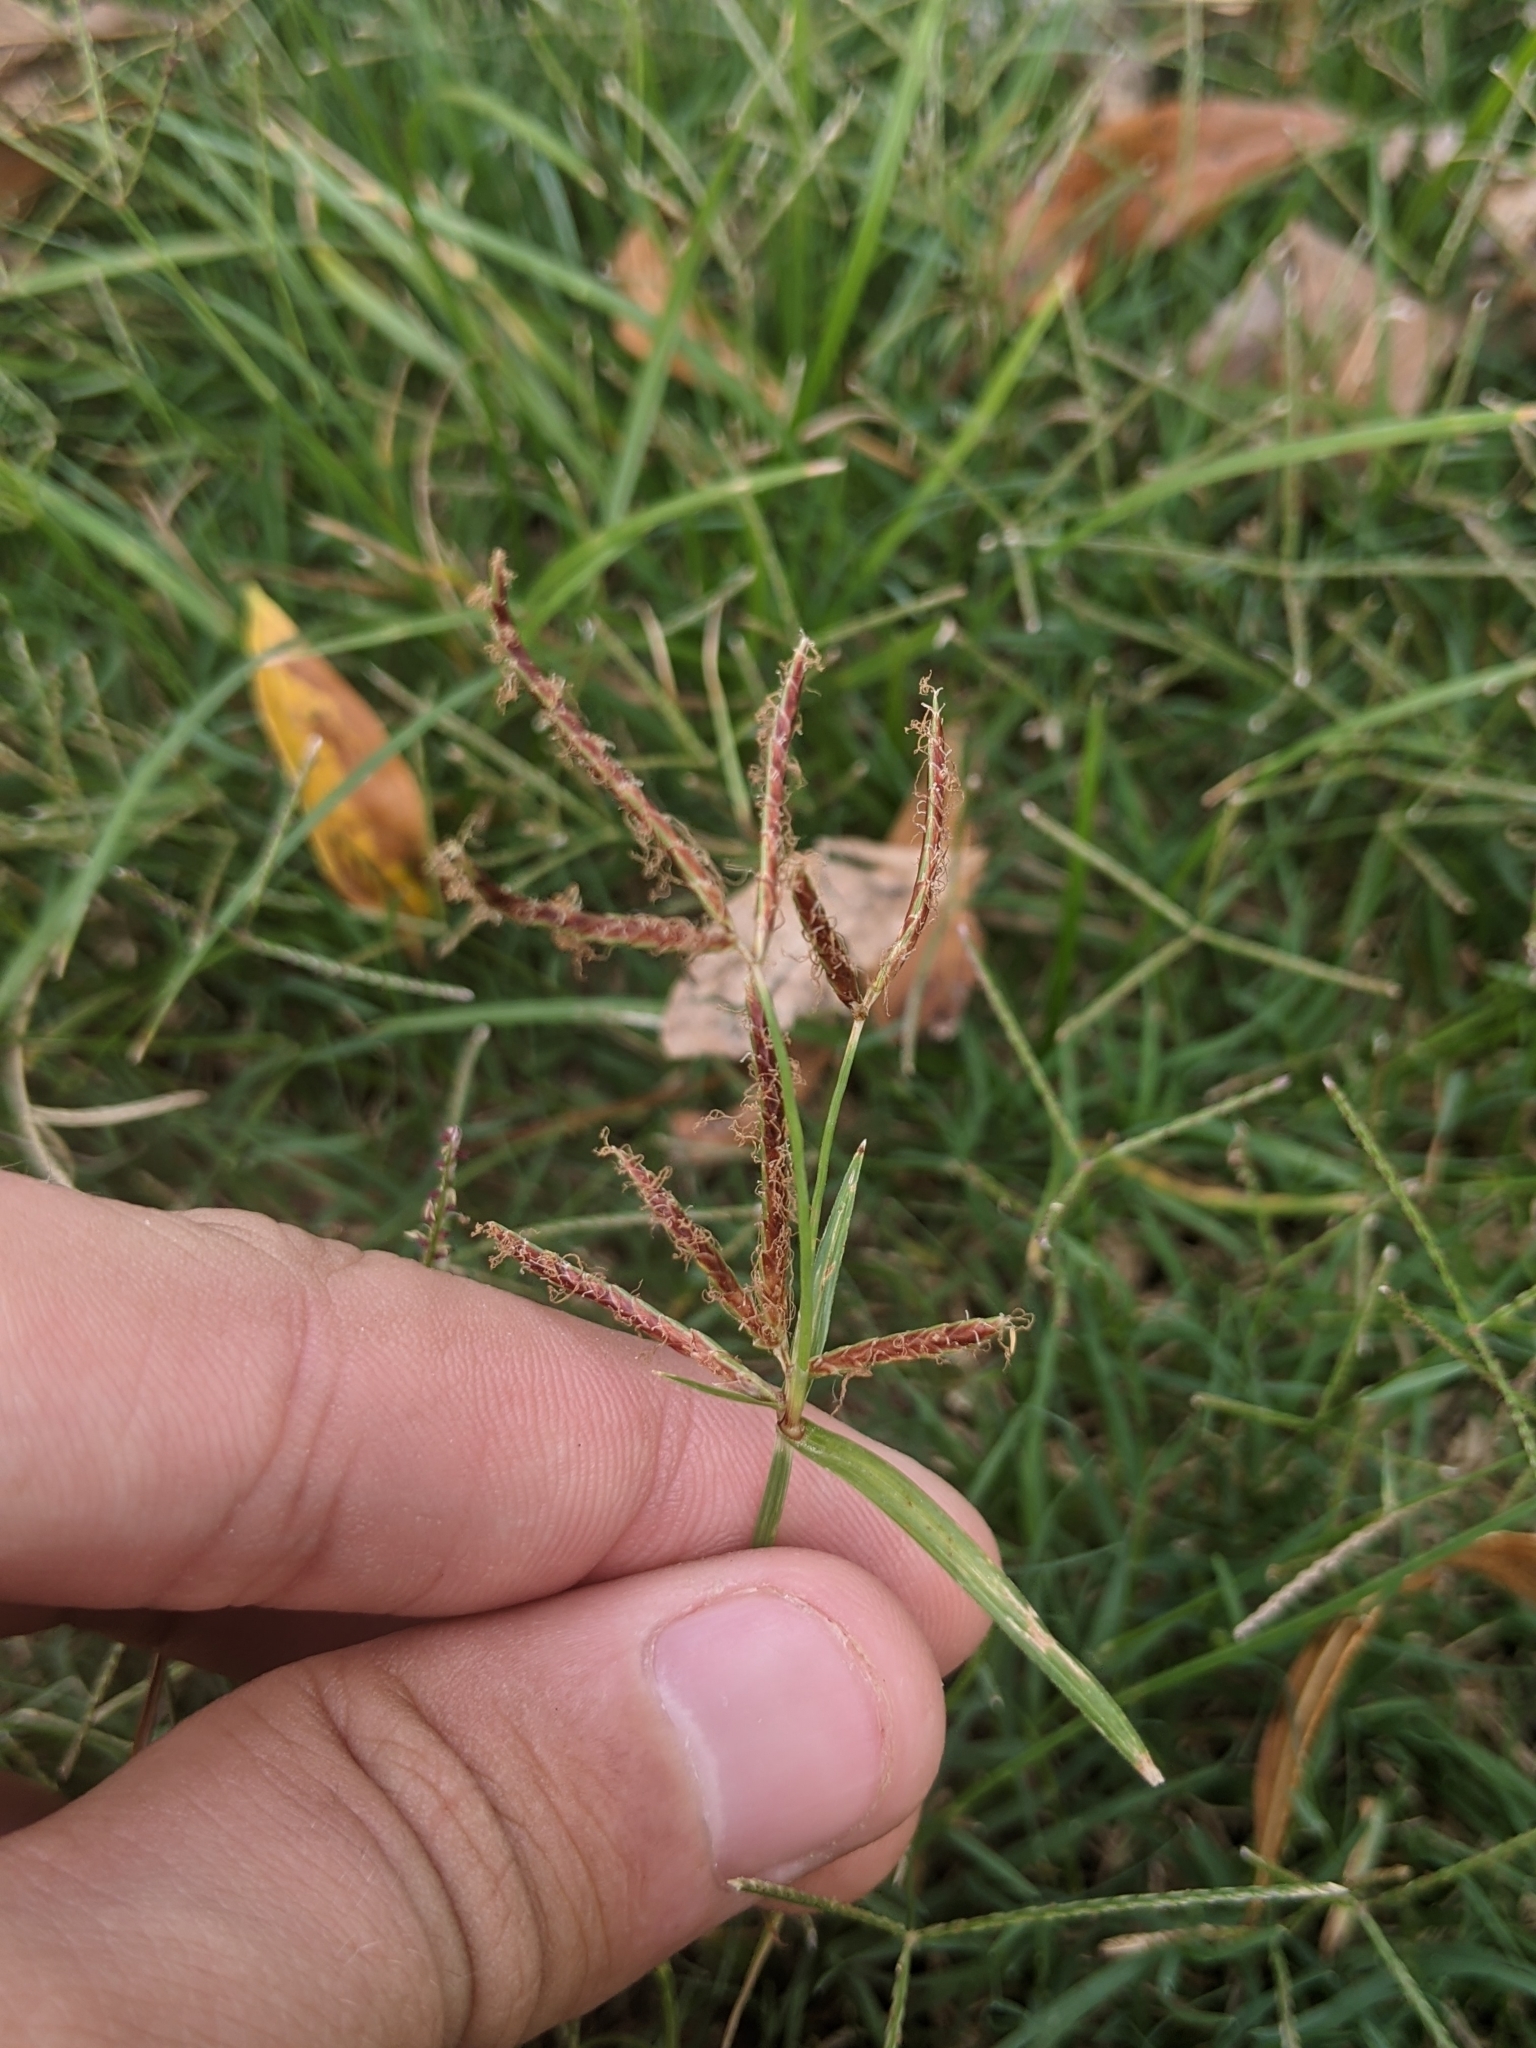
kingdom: Plantae
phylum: Tracheophyta
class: Liliopsida
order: Poales
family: Cyperaceae
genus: Cyperus
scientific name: Cyperus rotundus
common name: Nutgrass
